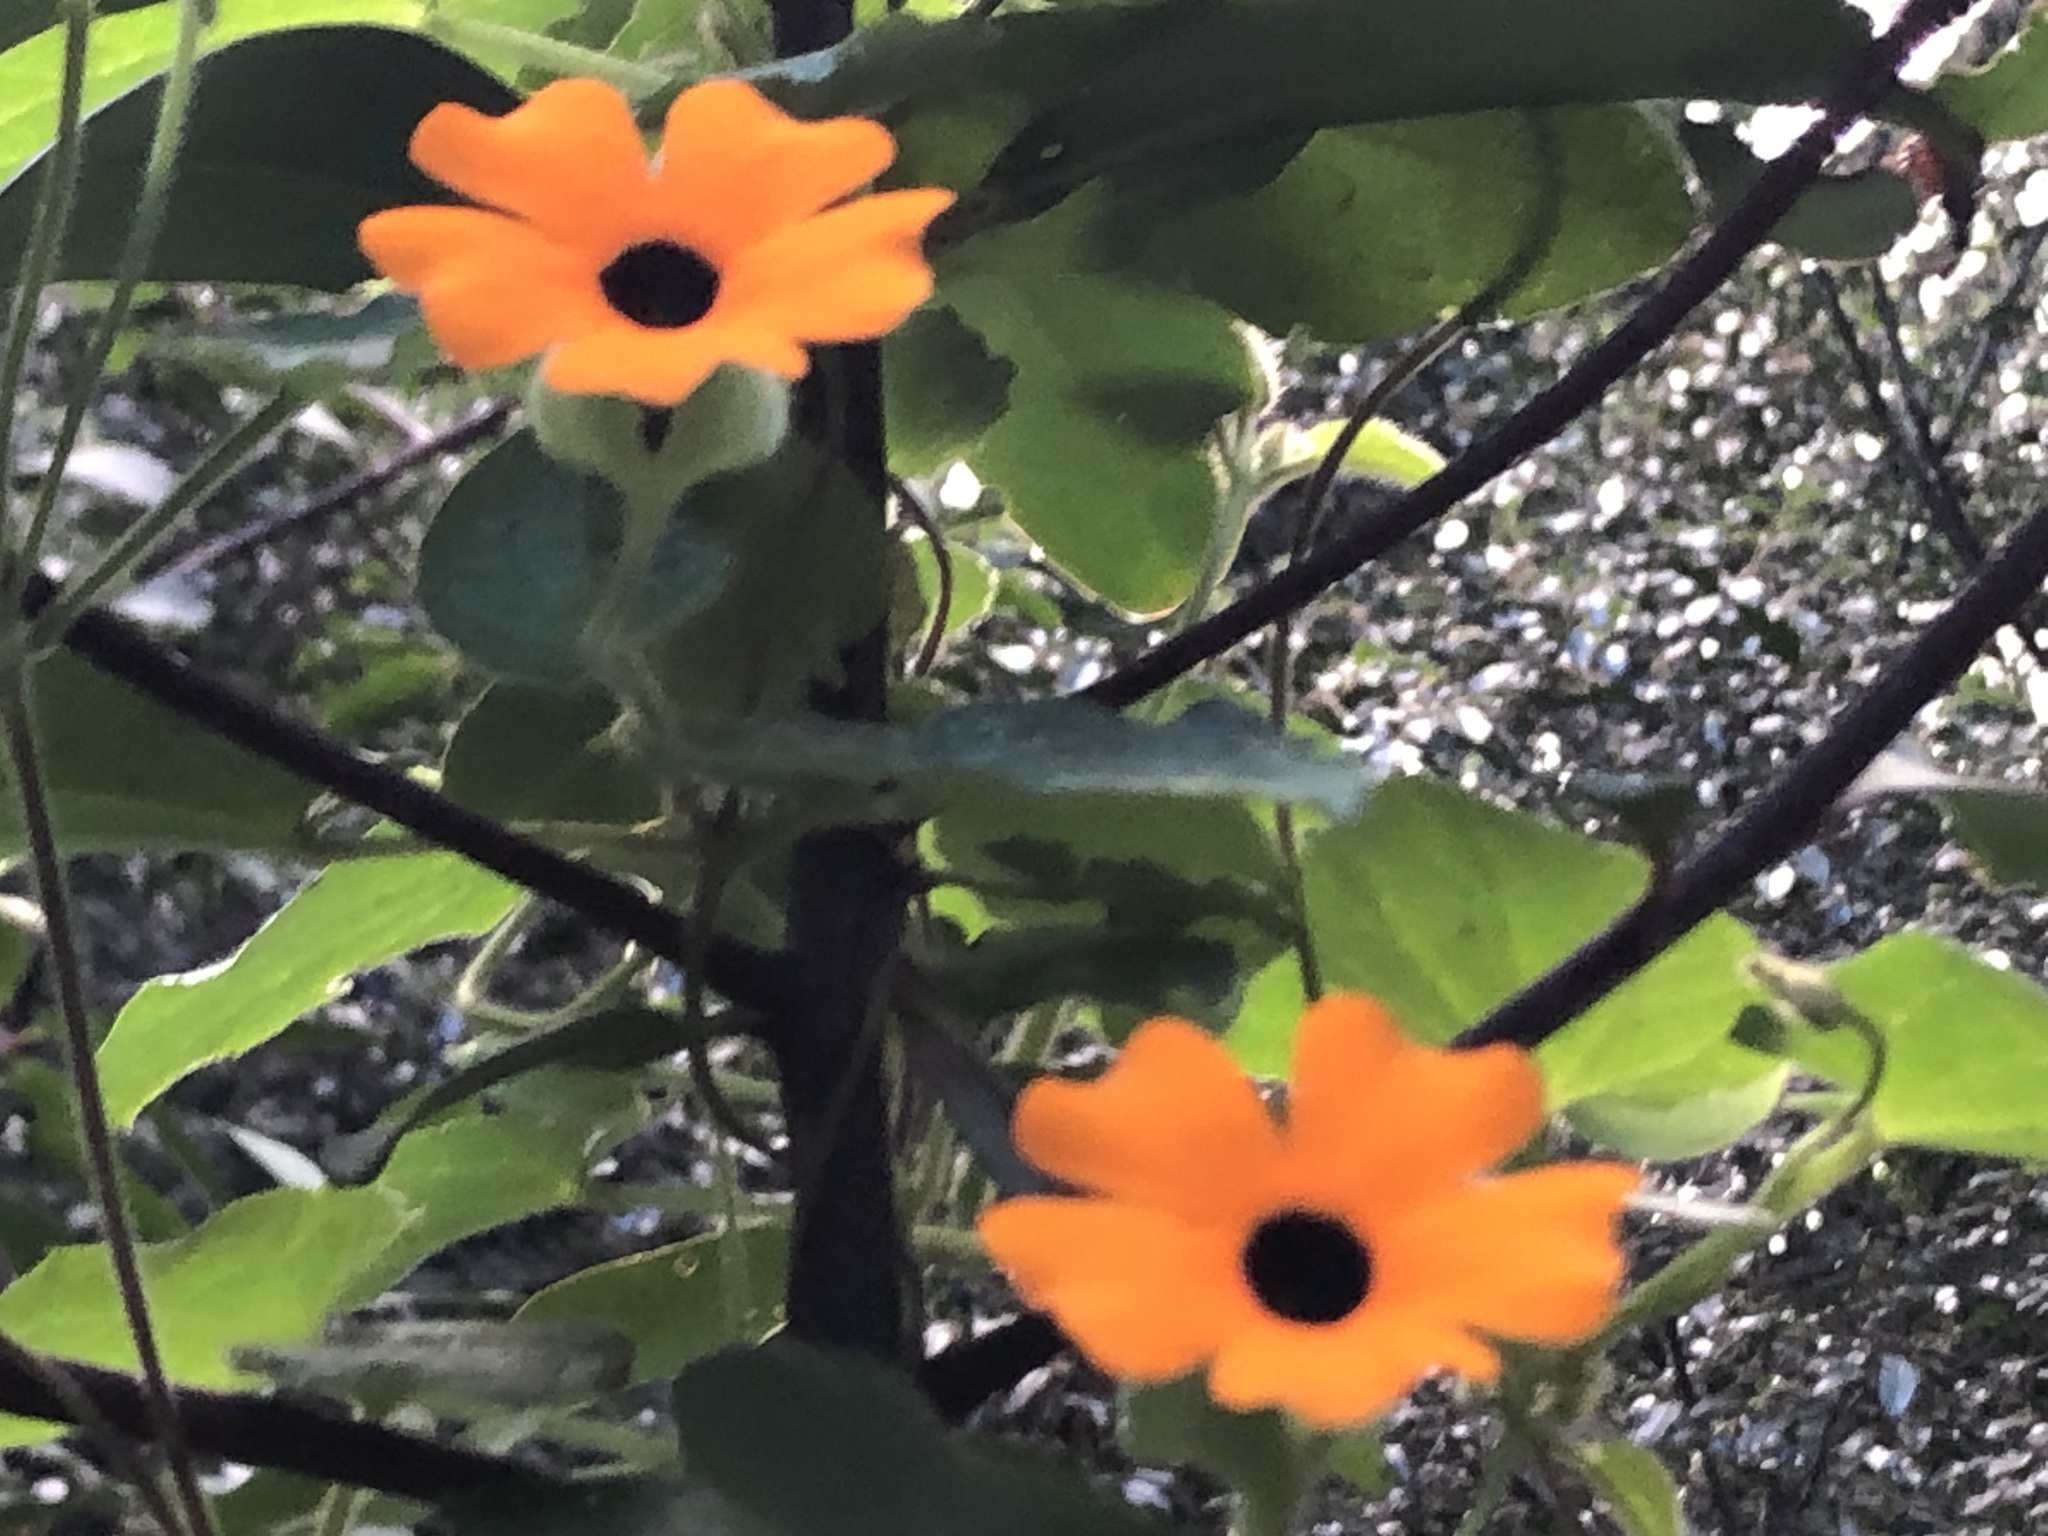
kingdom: Plantae
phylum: Tracheophyta
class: Magnoliopsida
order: Lamiales
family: Acanthaceae
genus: Thunbergia
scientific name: Thunbergia alata
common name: Blackeyed susan vine
